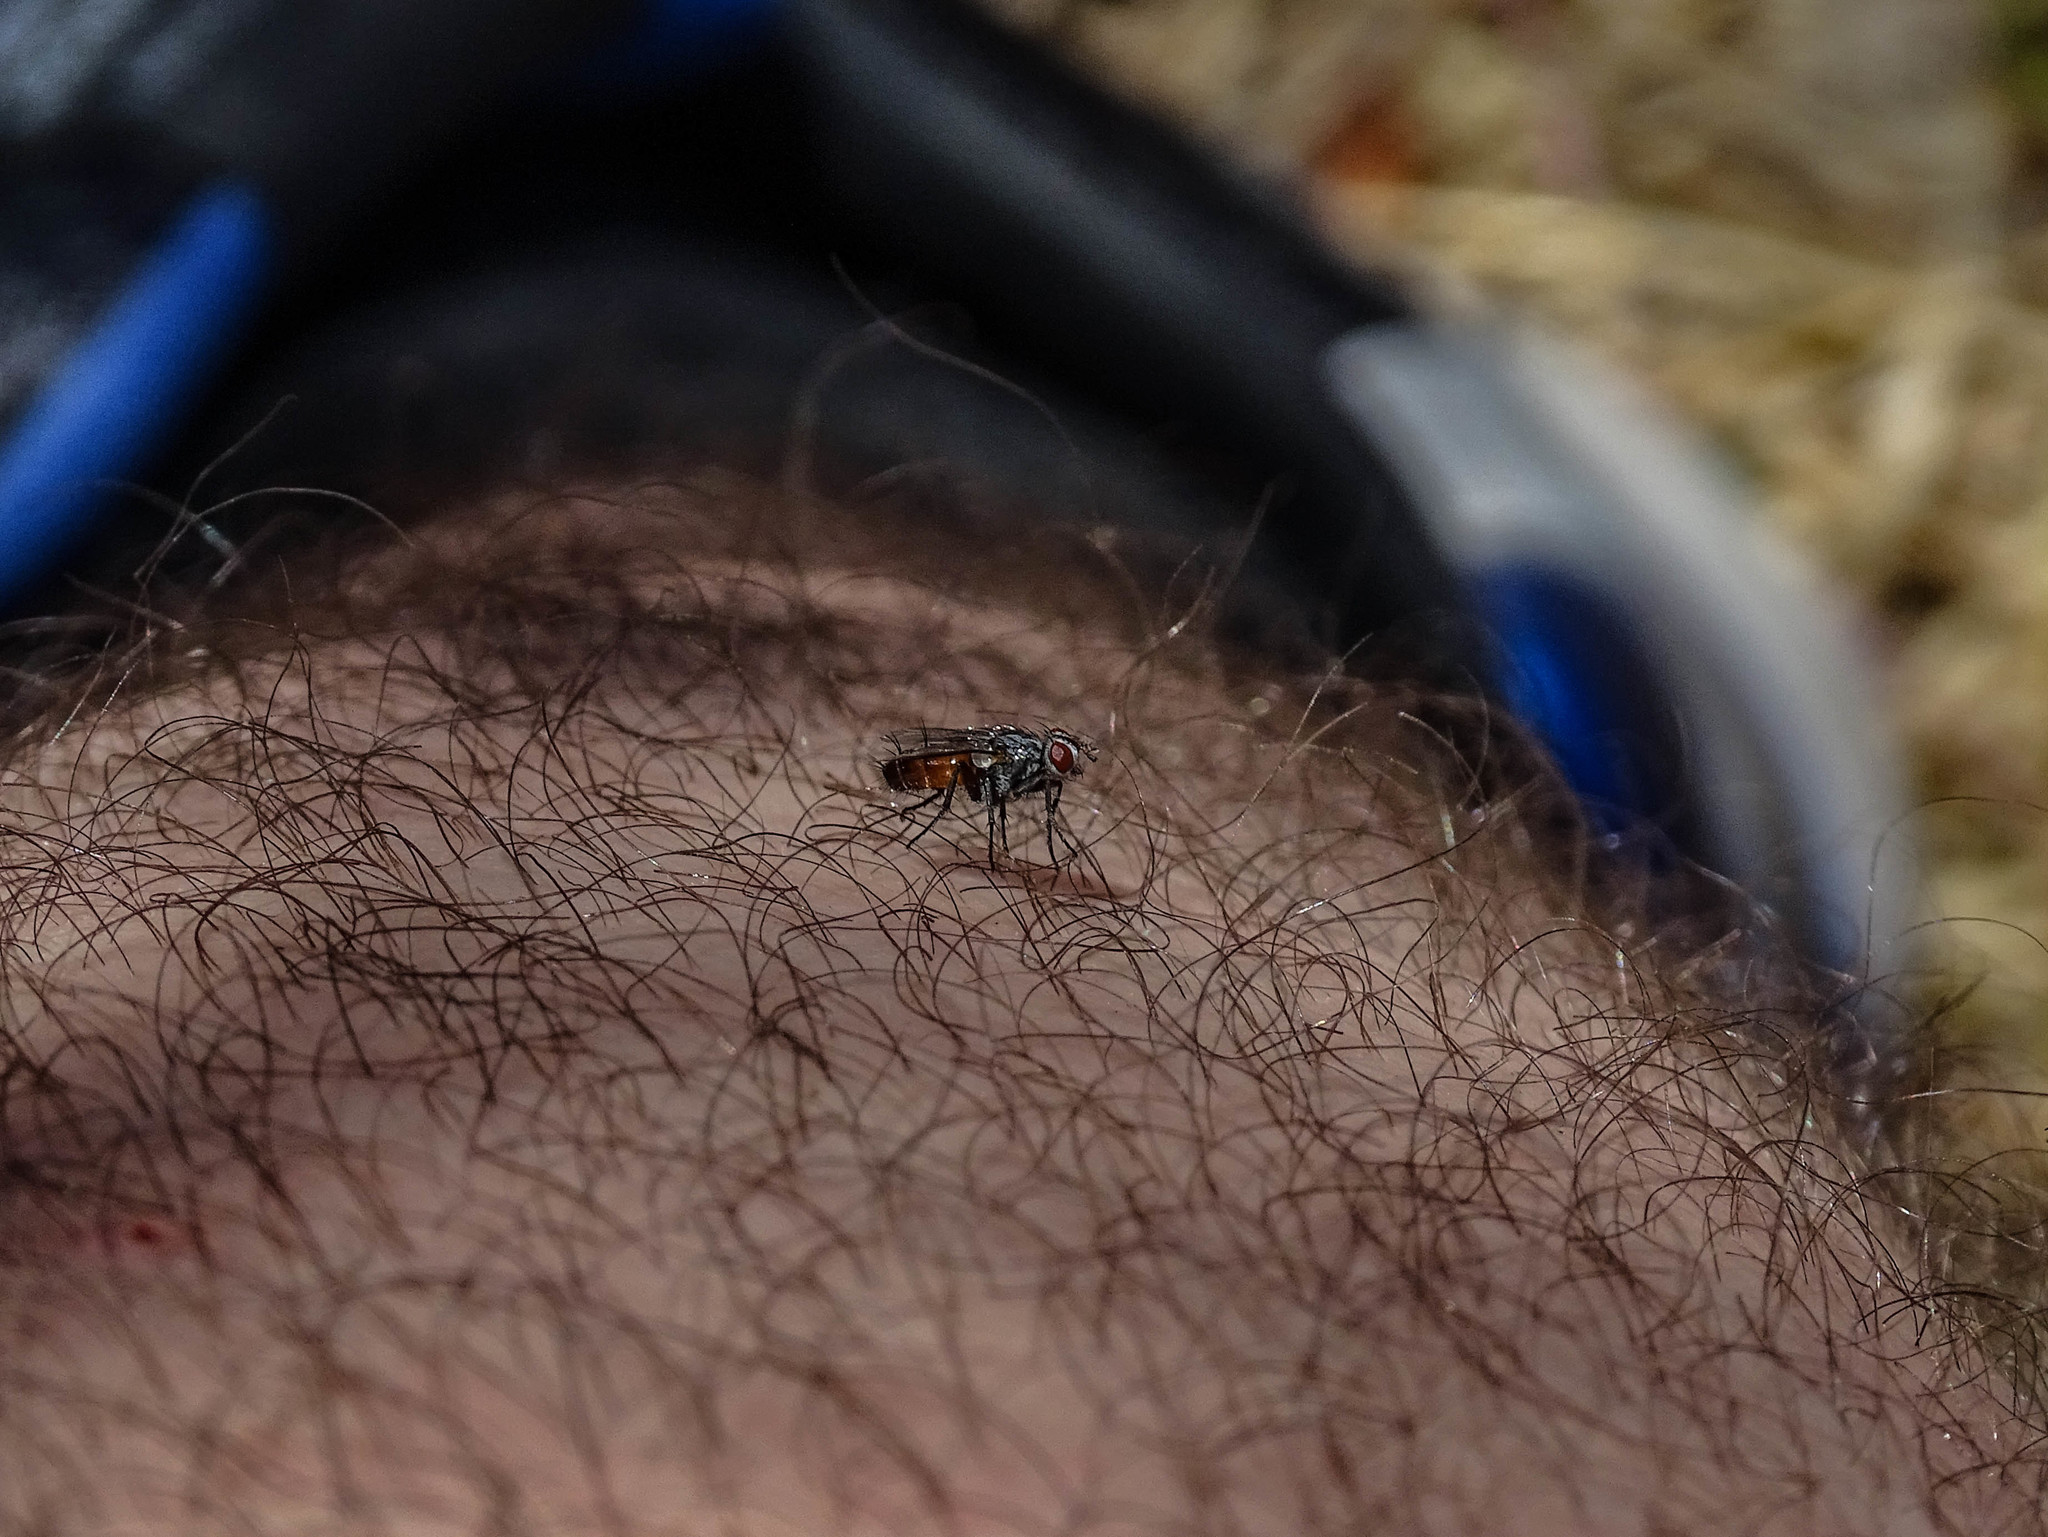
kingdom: Animalia
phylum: Arthropoda
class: Insecta
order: Diptera
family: Calliphoridae
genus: Stevenia
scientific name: Stevenia
